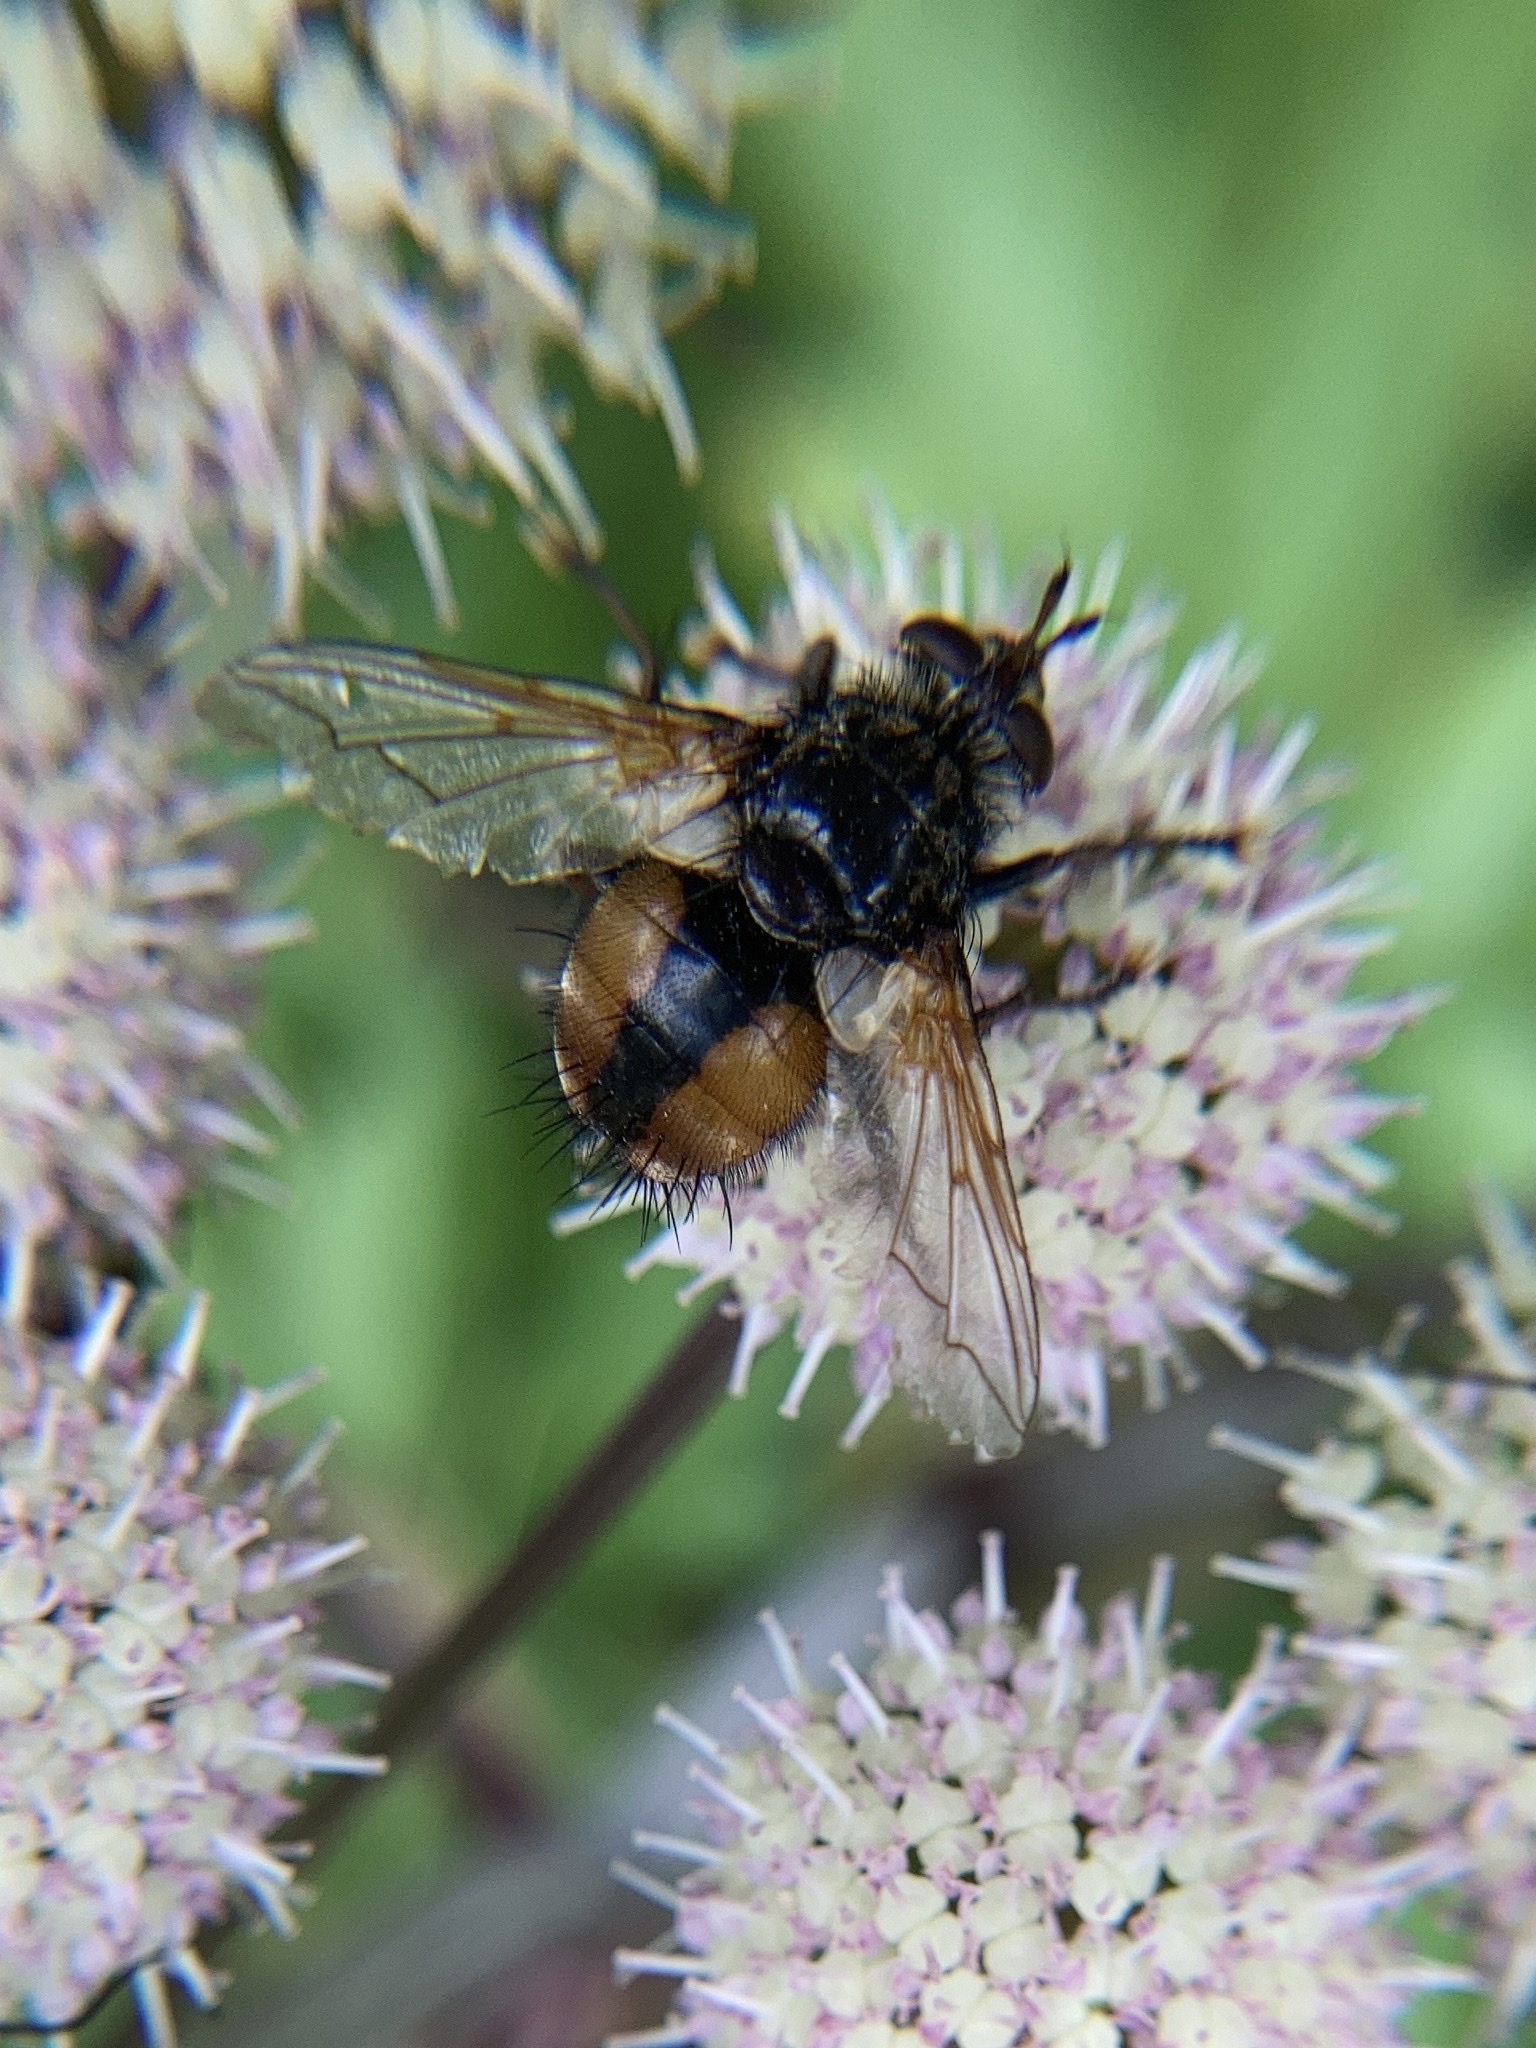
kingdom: Animalia
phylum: Arthropoda
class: Insecta
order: Diptera
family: Tachinidae
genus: Tachina
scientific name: Tachina fera
